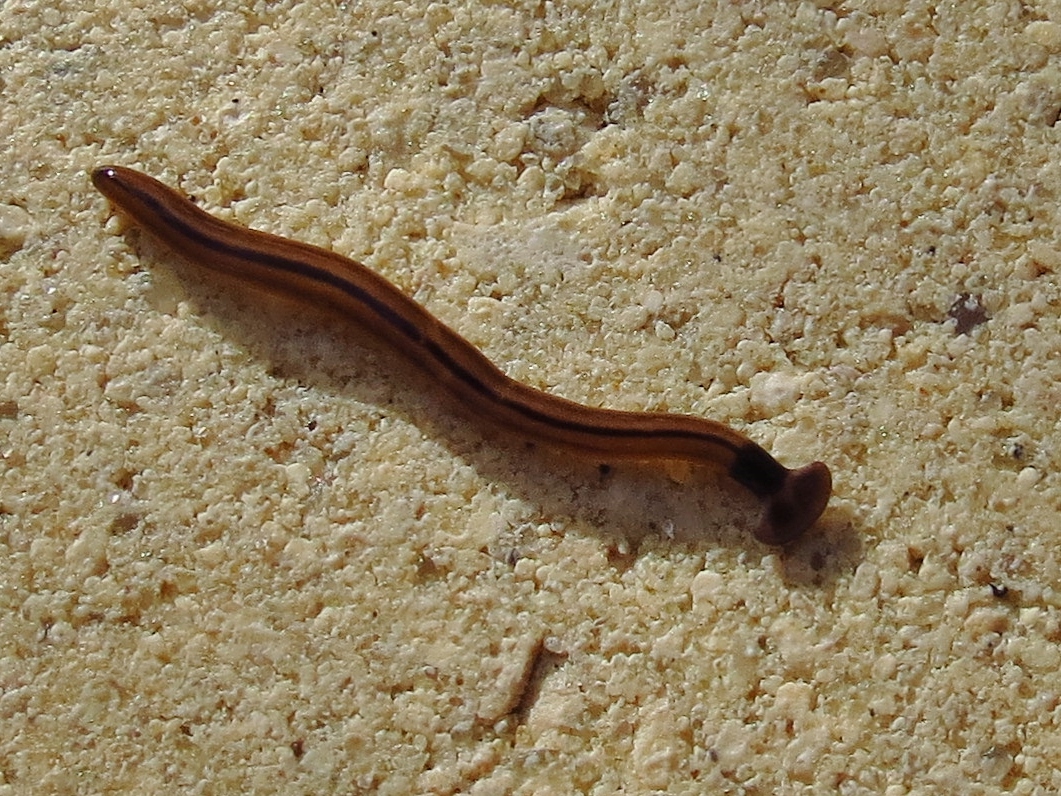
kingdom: Animalia
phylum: Platyhelminthes
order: Tricladida
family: Geoplanidae
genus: Bipalium
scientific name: Bipalium vagum
